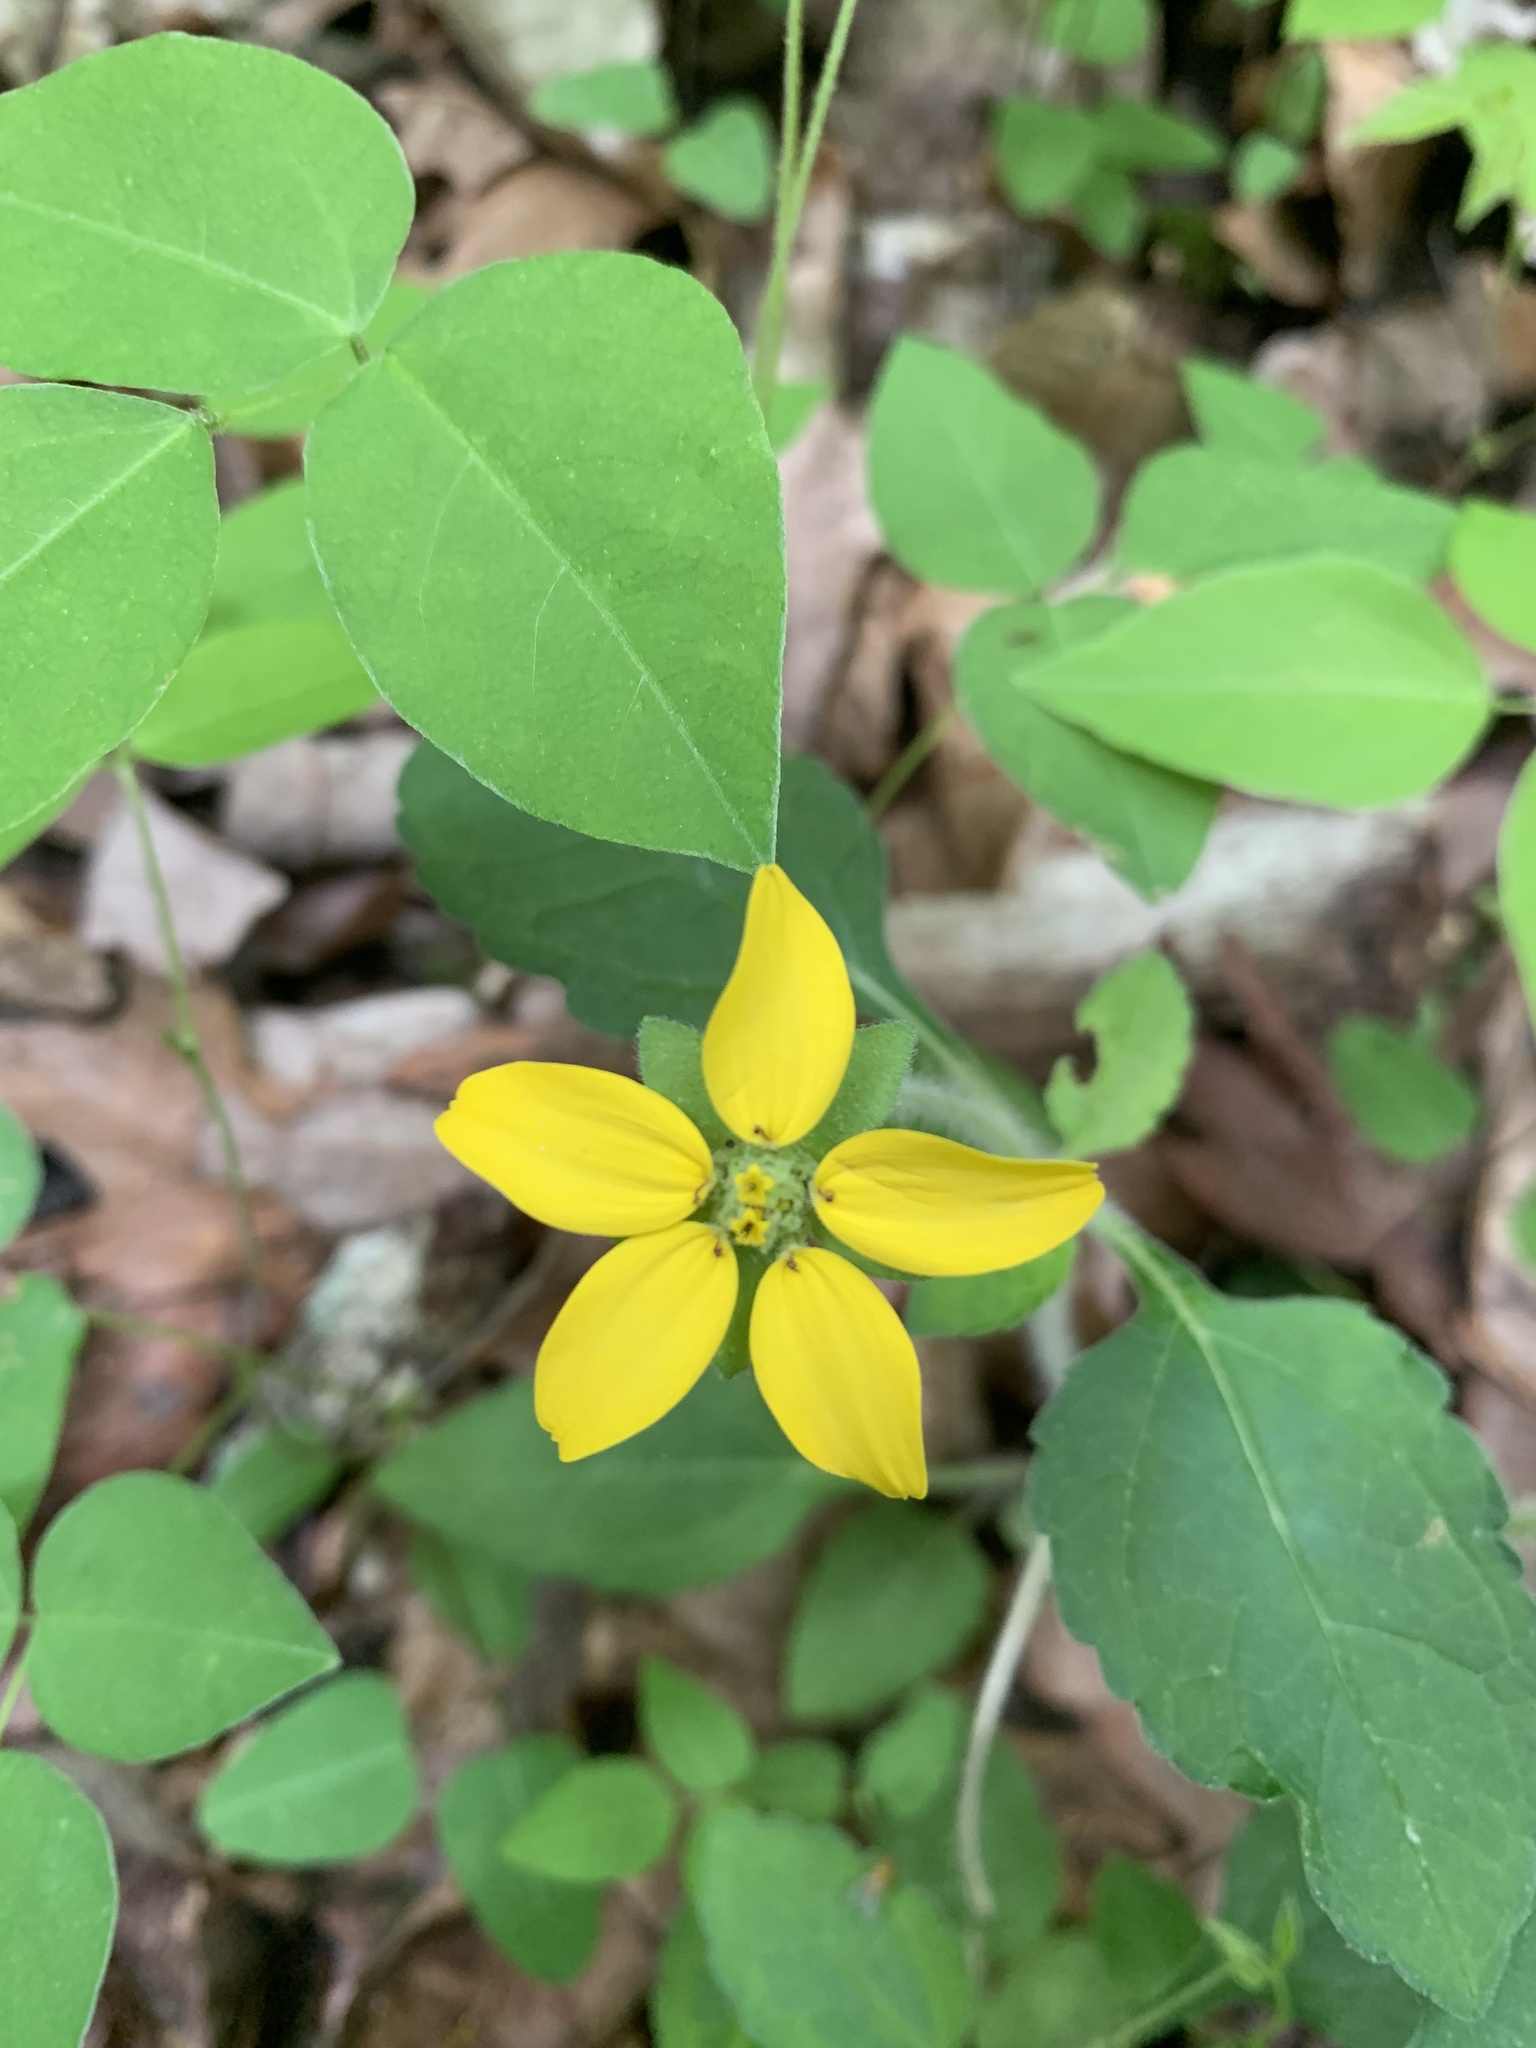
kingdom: Plantae
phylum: Tracheophyta
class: Magnoliopsida
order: Asterales
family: Asteraceae
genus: Chrysogonum
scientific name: Chrysogonum virginianum
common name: Golden-knee
